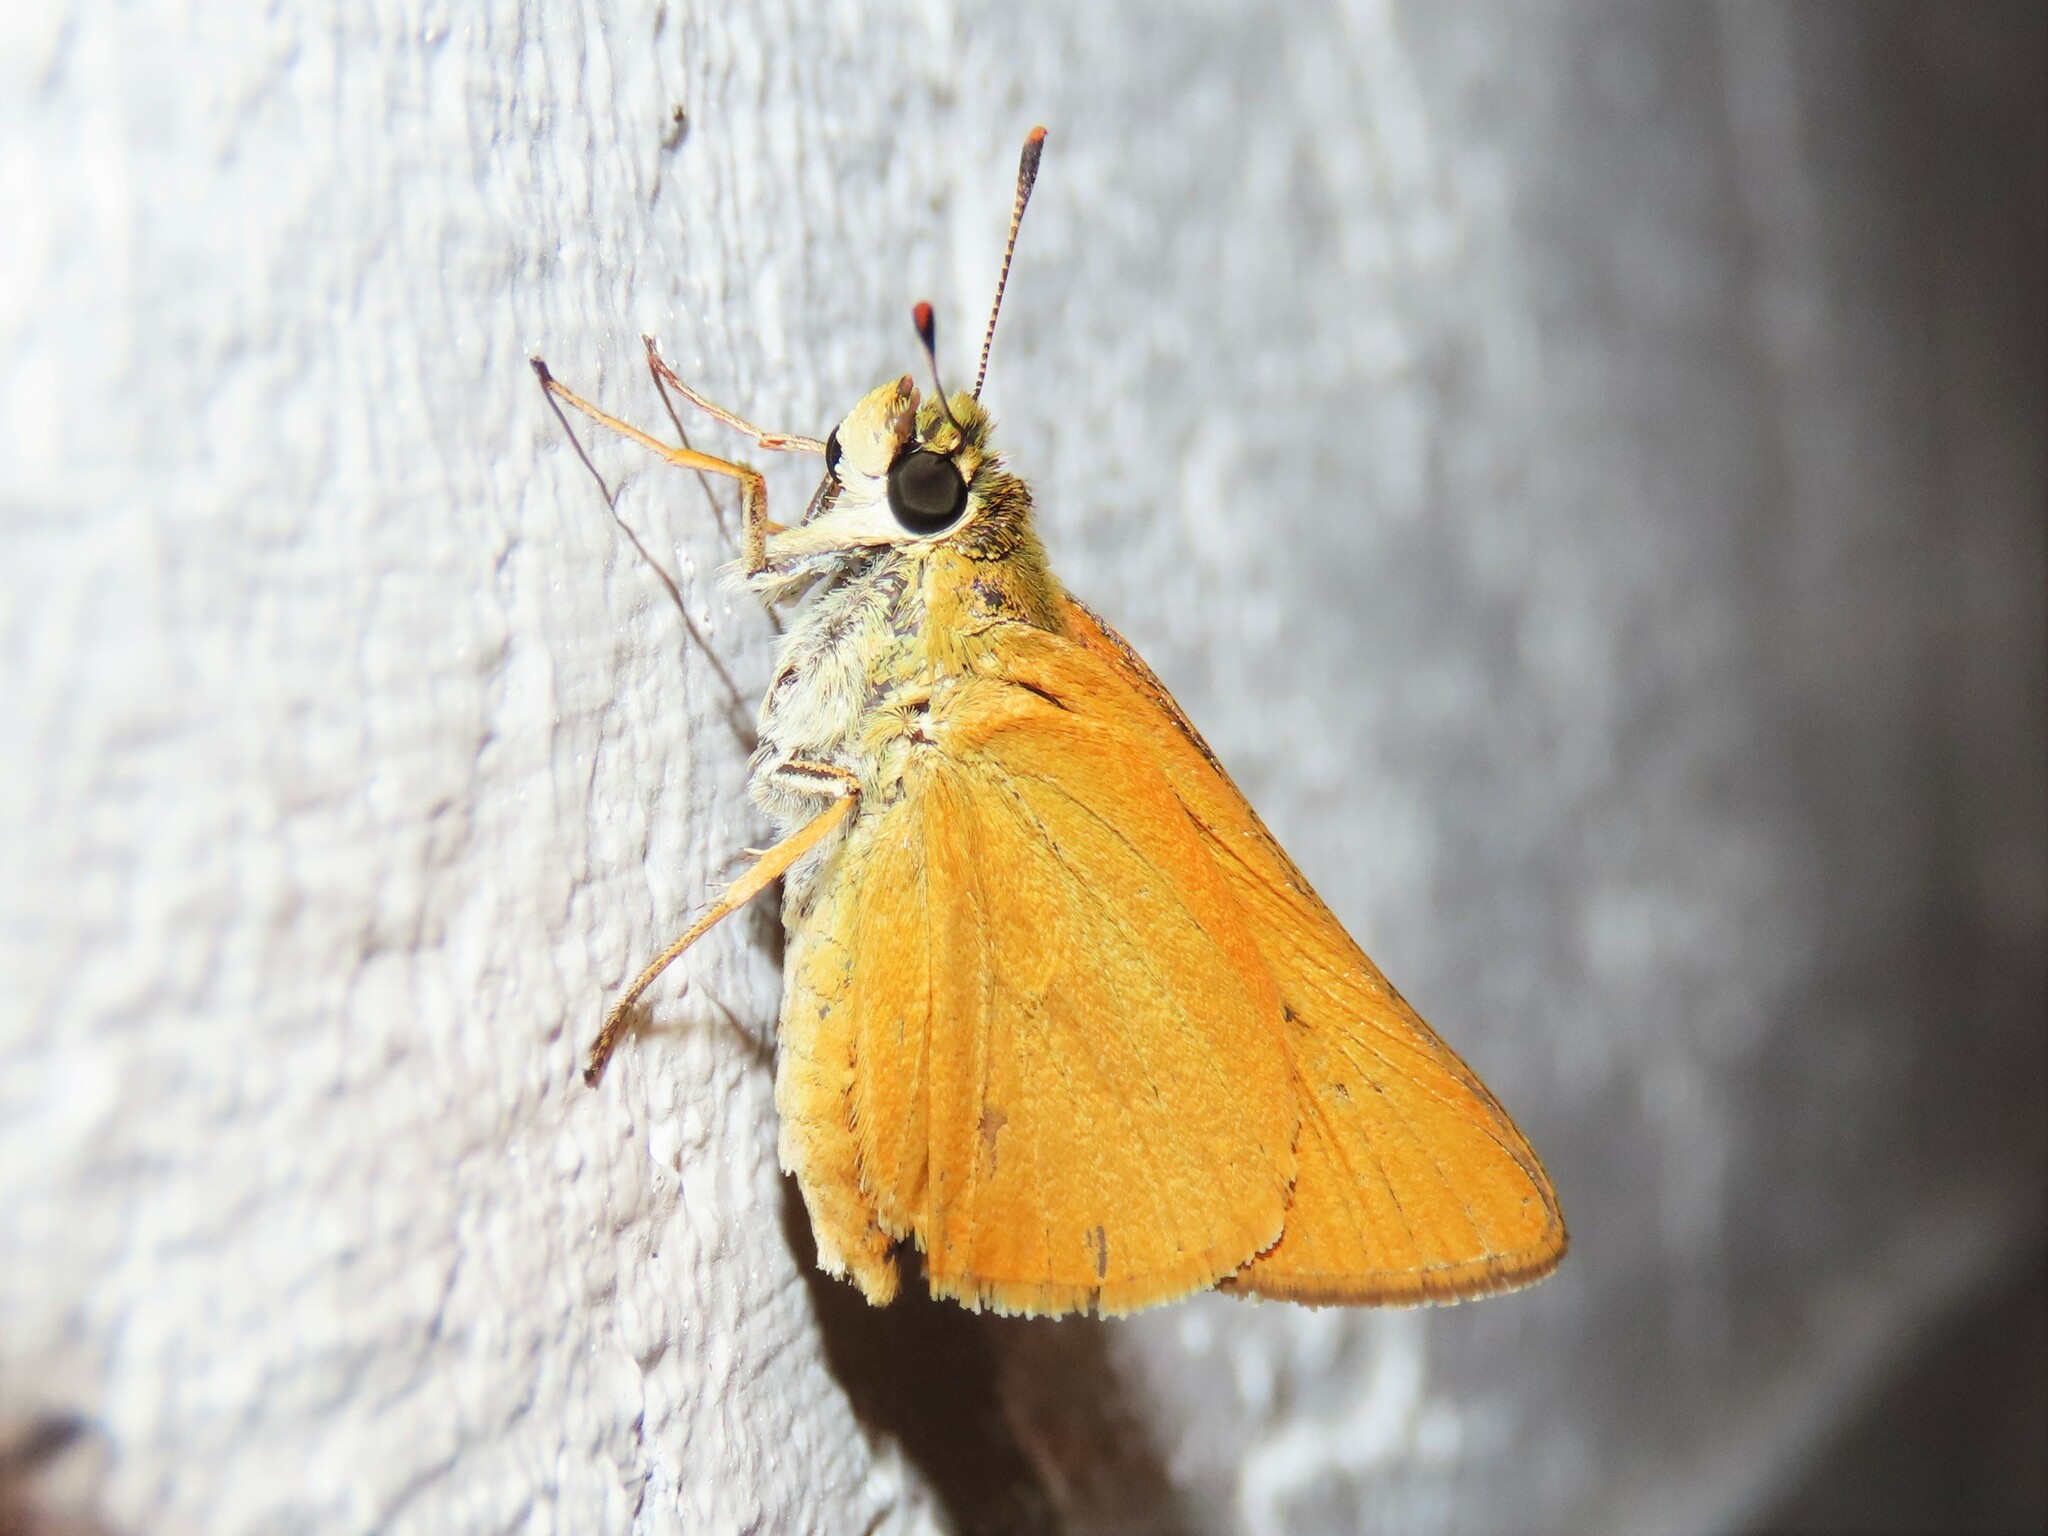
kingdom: Animalia
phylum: Arthropoda
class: Insecta
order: Lepidoptera
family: Hesperiidae
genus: Atrytone
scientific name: Atrytone delaware
